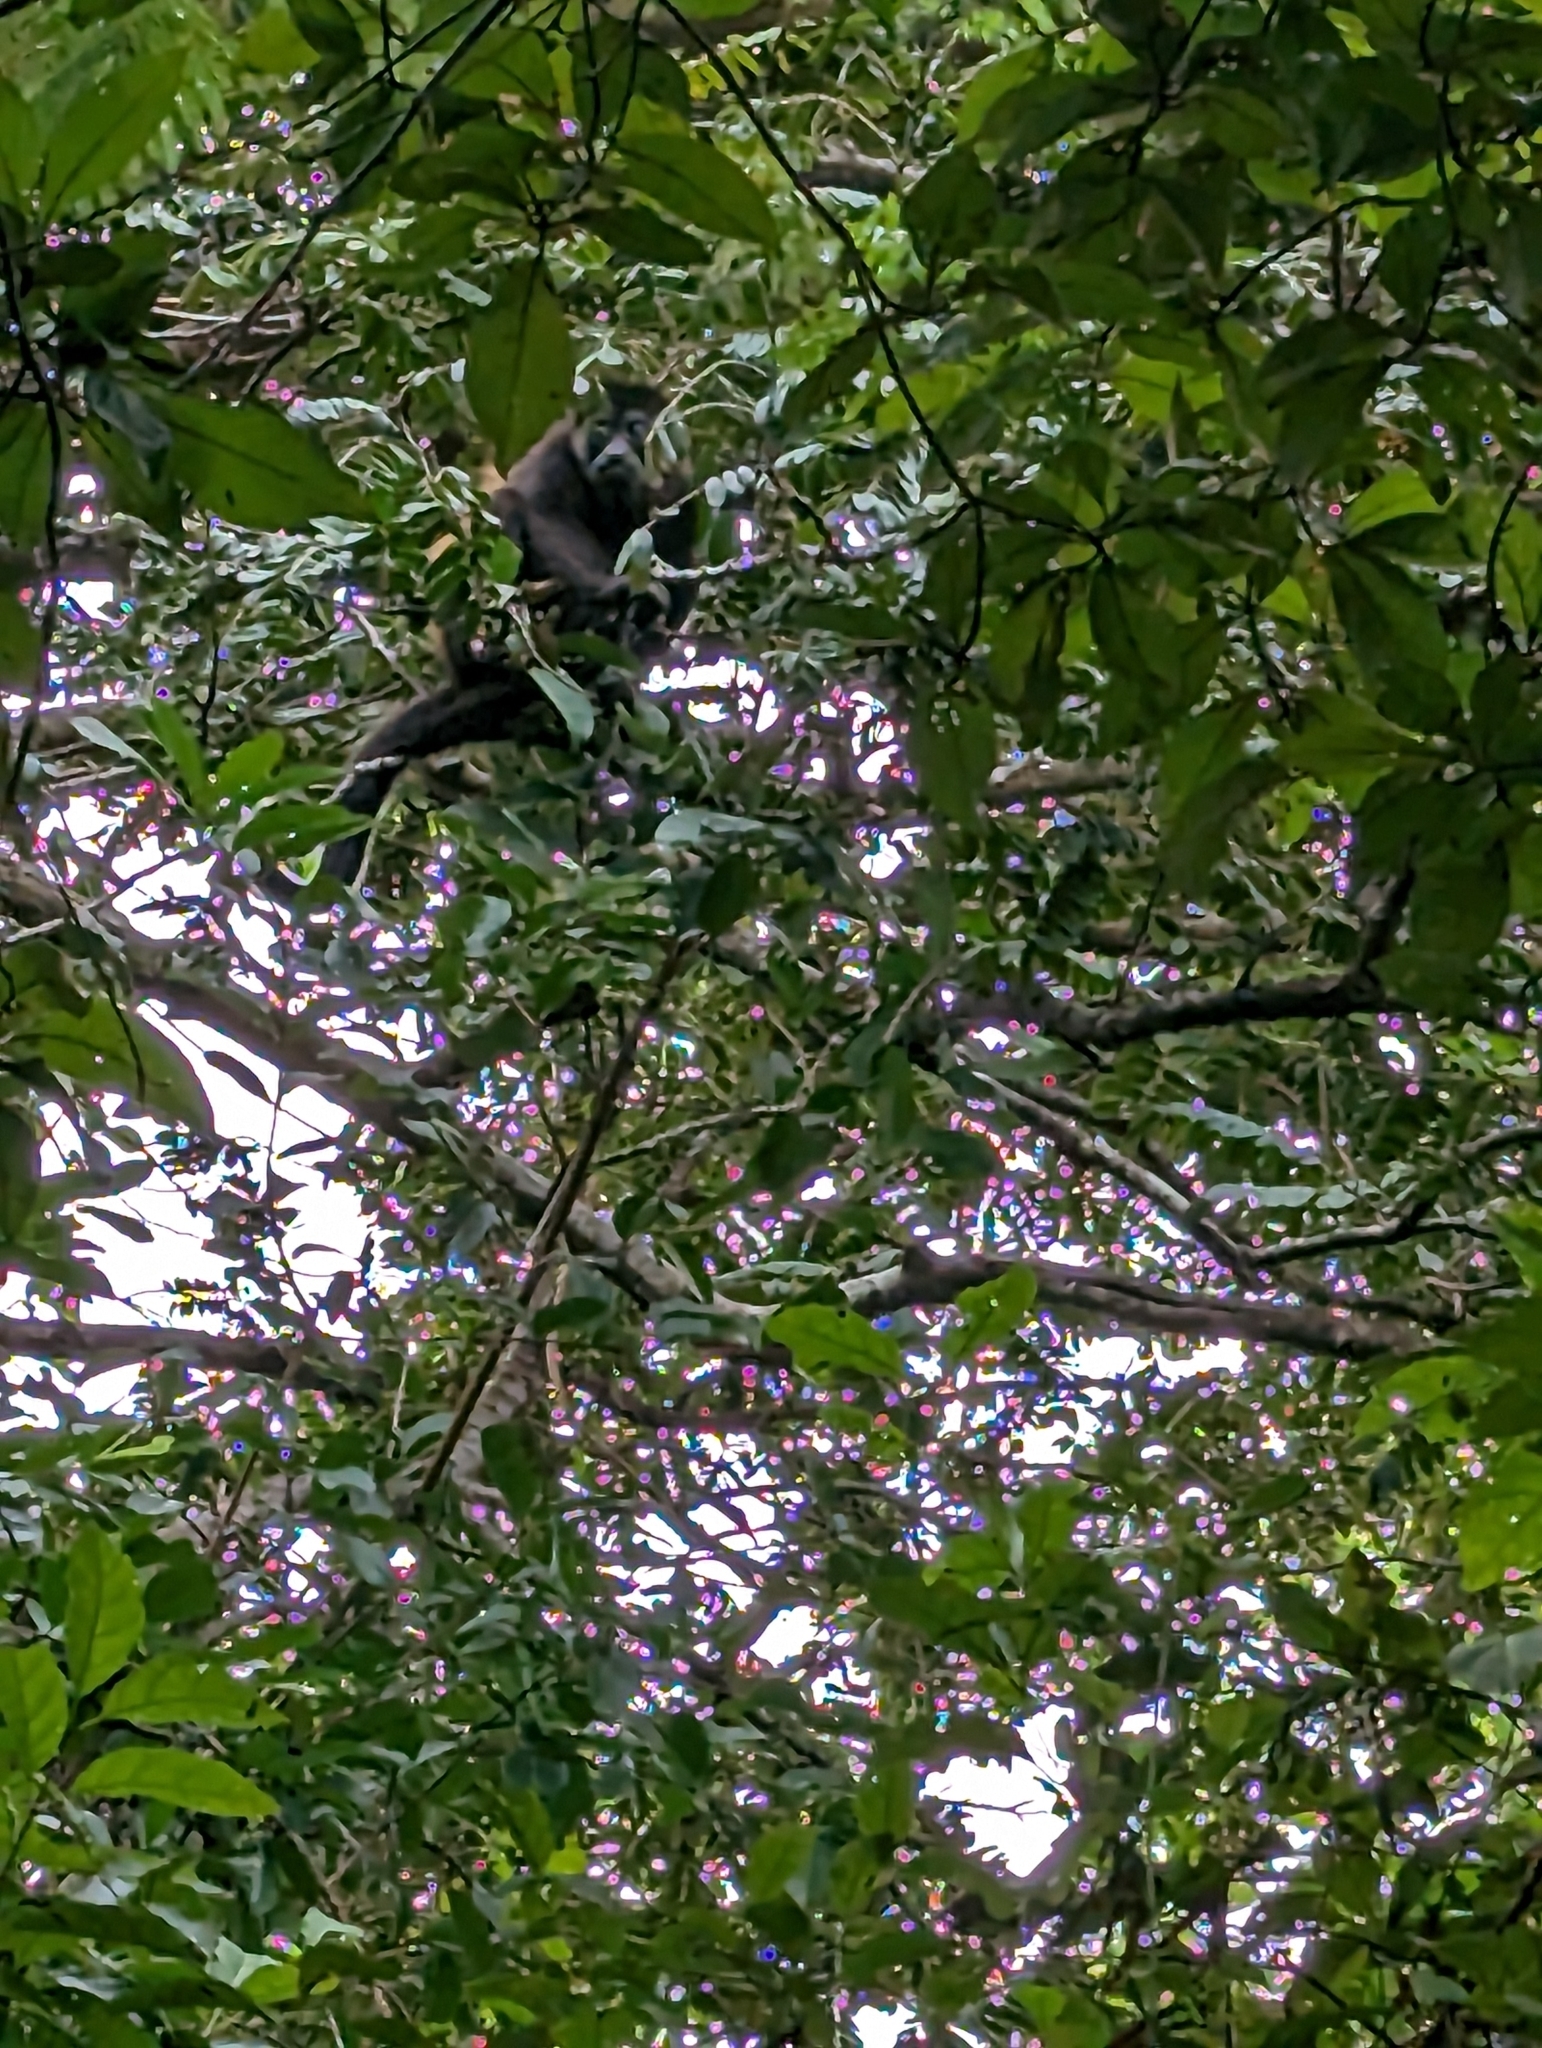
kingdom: Animalia
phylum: Chordata
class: Mammalia
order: Primates
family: Atelidae
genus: Alouatta
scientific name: Alouatta palliata
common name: Mantled howler
